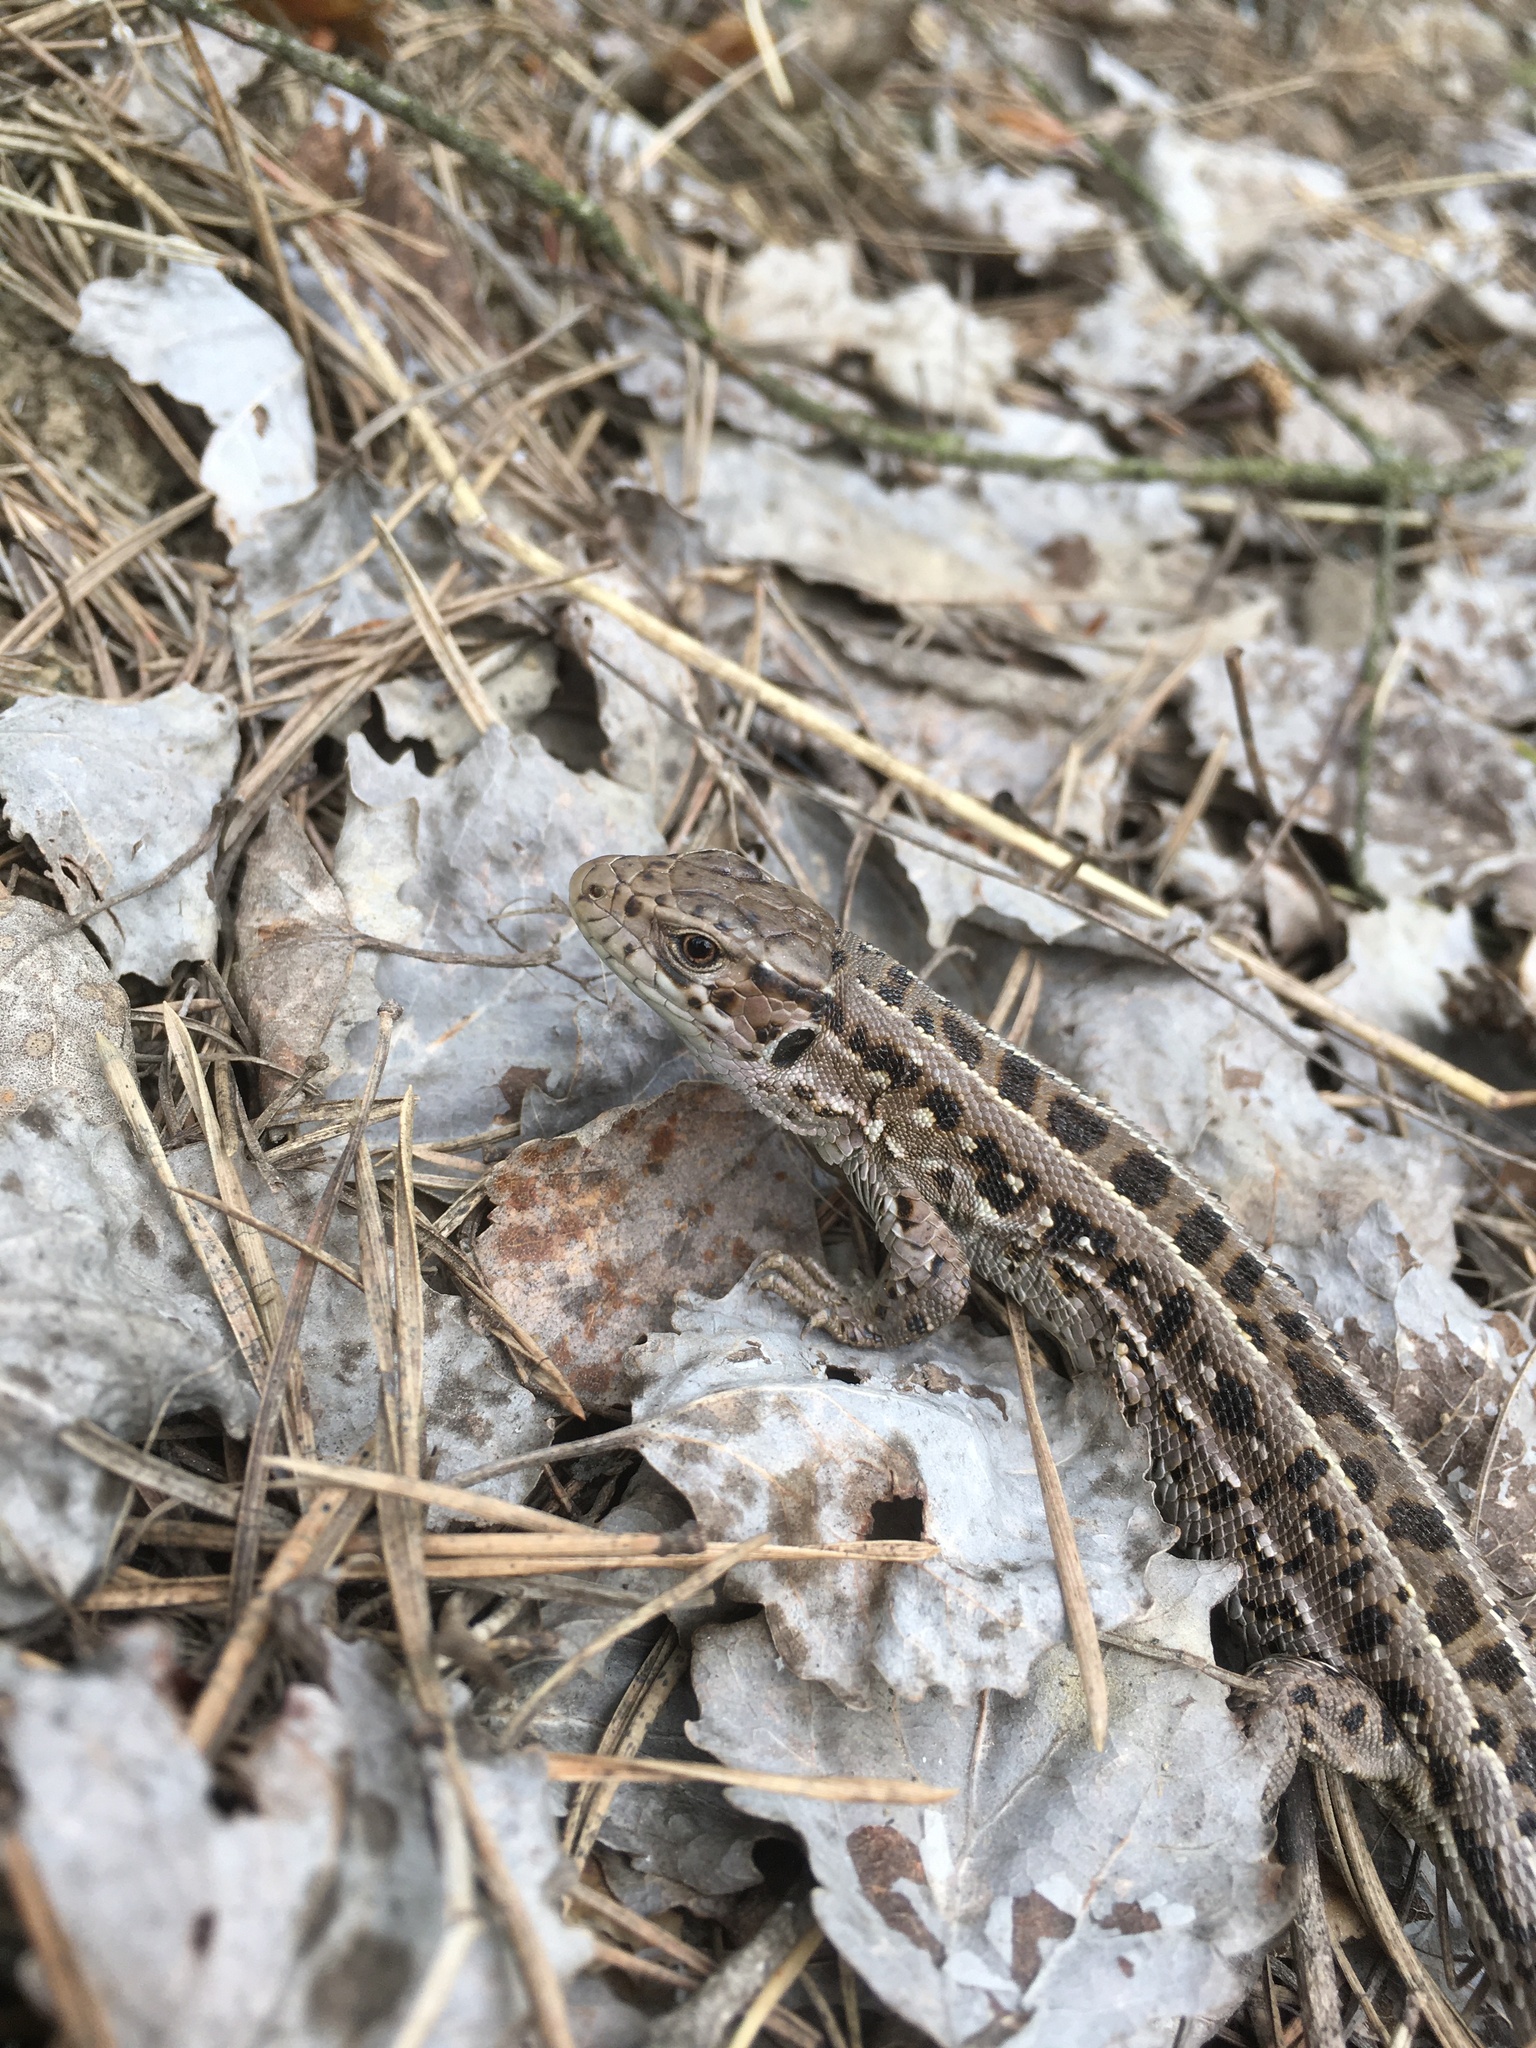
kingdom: Animalia
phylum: Chordata
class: Squamata
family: Lacertidae
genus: Lacerta
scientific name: Lacerta agilis
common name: Sand lizard
